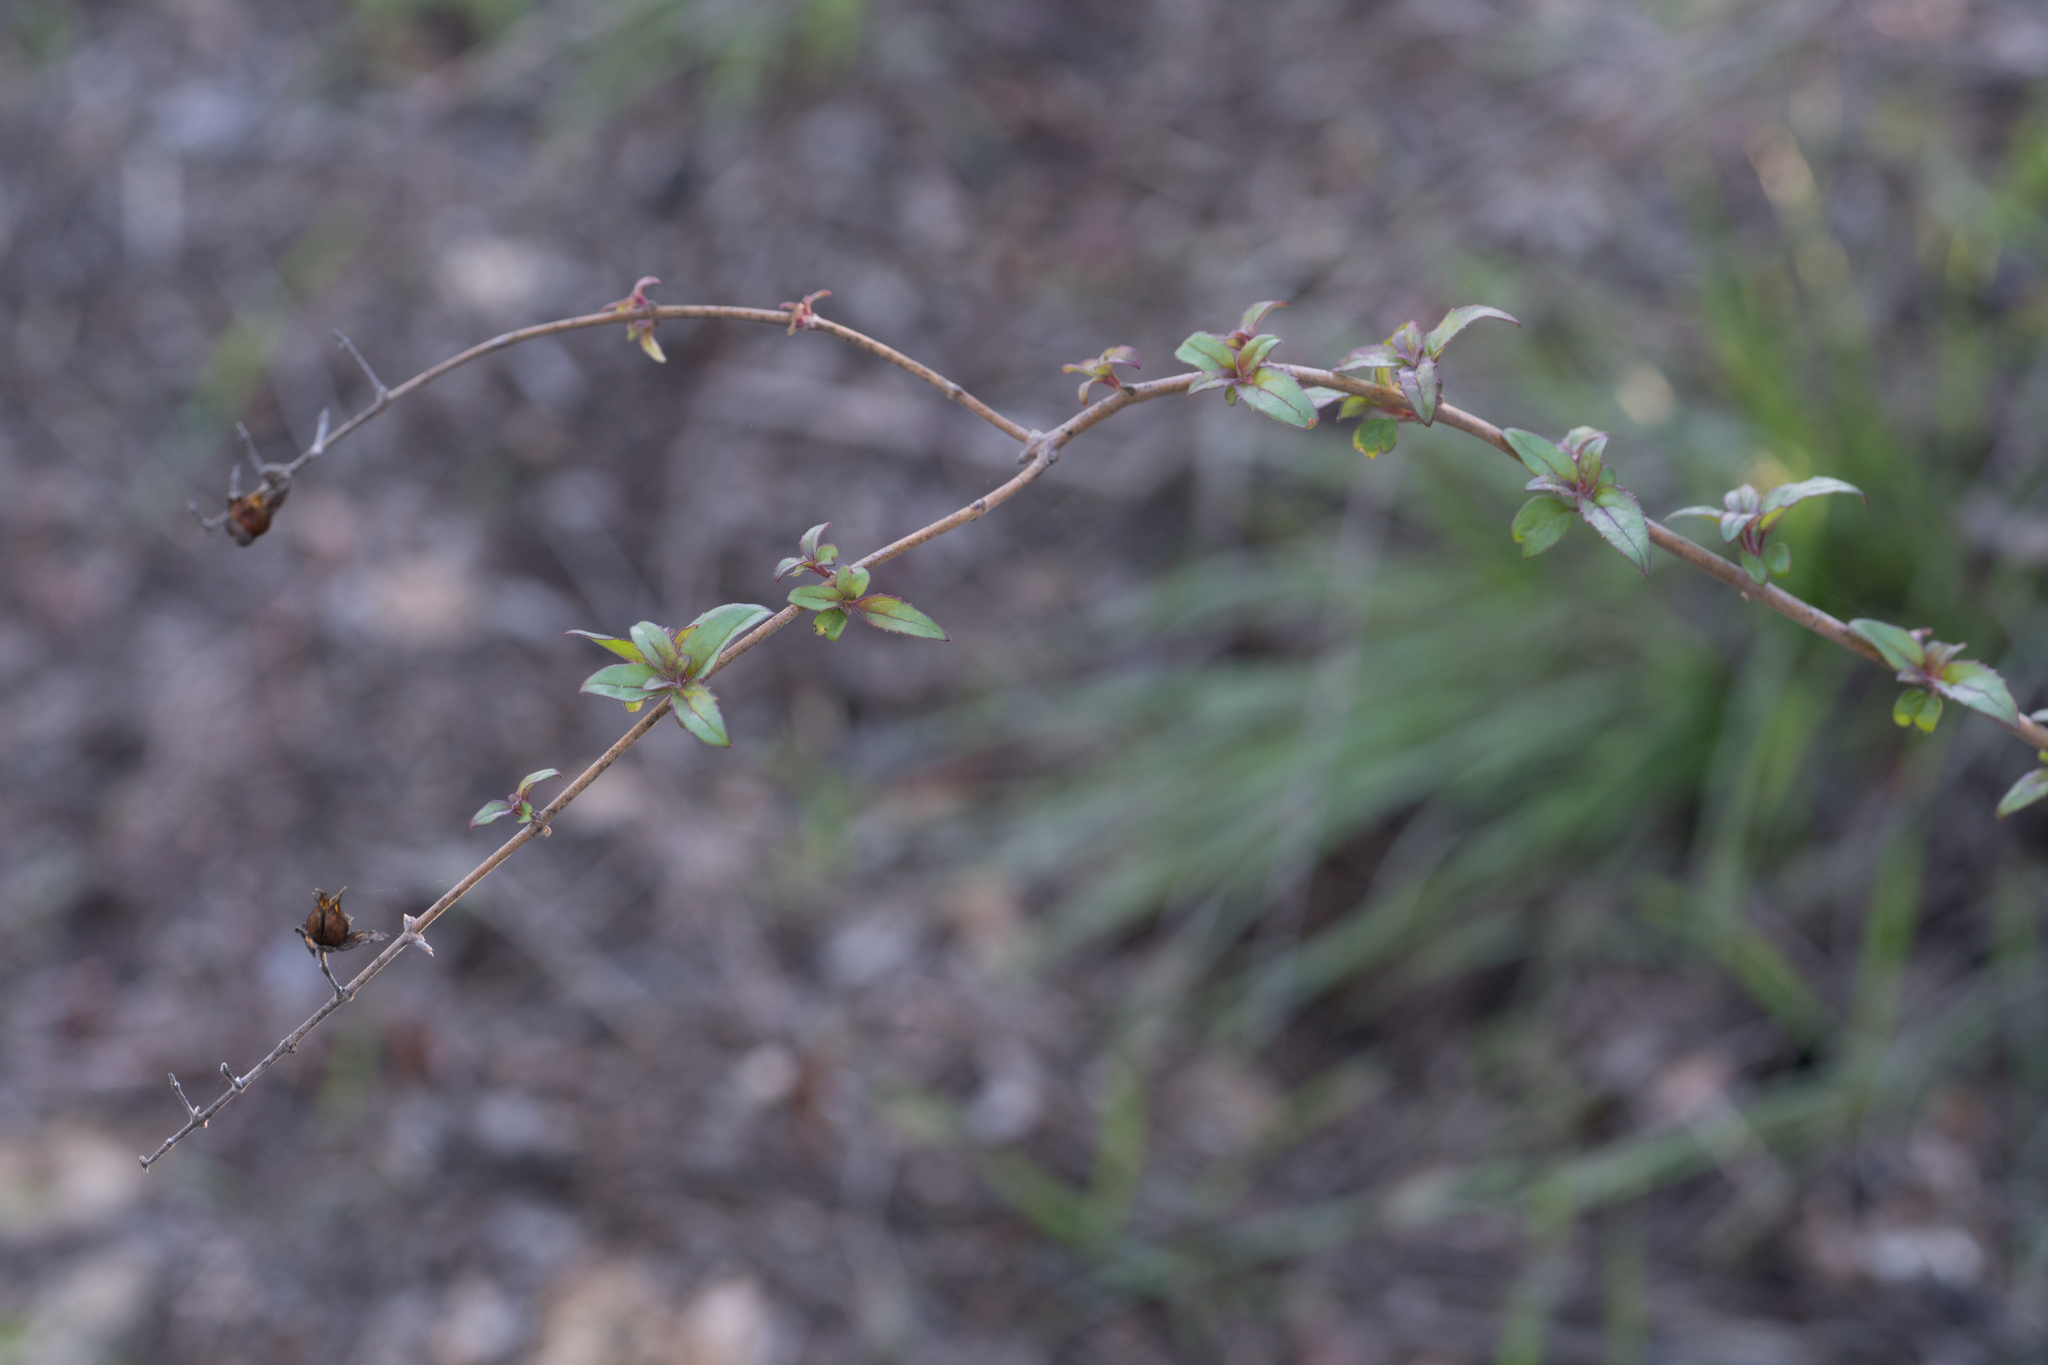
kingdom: Plantae
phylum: Tracheophyta
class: Magnoliopsida
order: Lamiales
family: Plantaginaceae
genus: Keckiella
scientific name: Keckiella cordifolia
